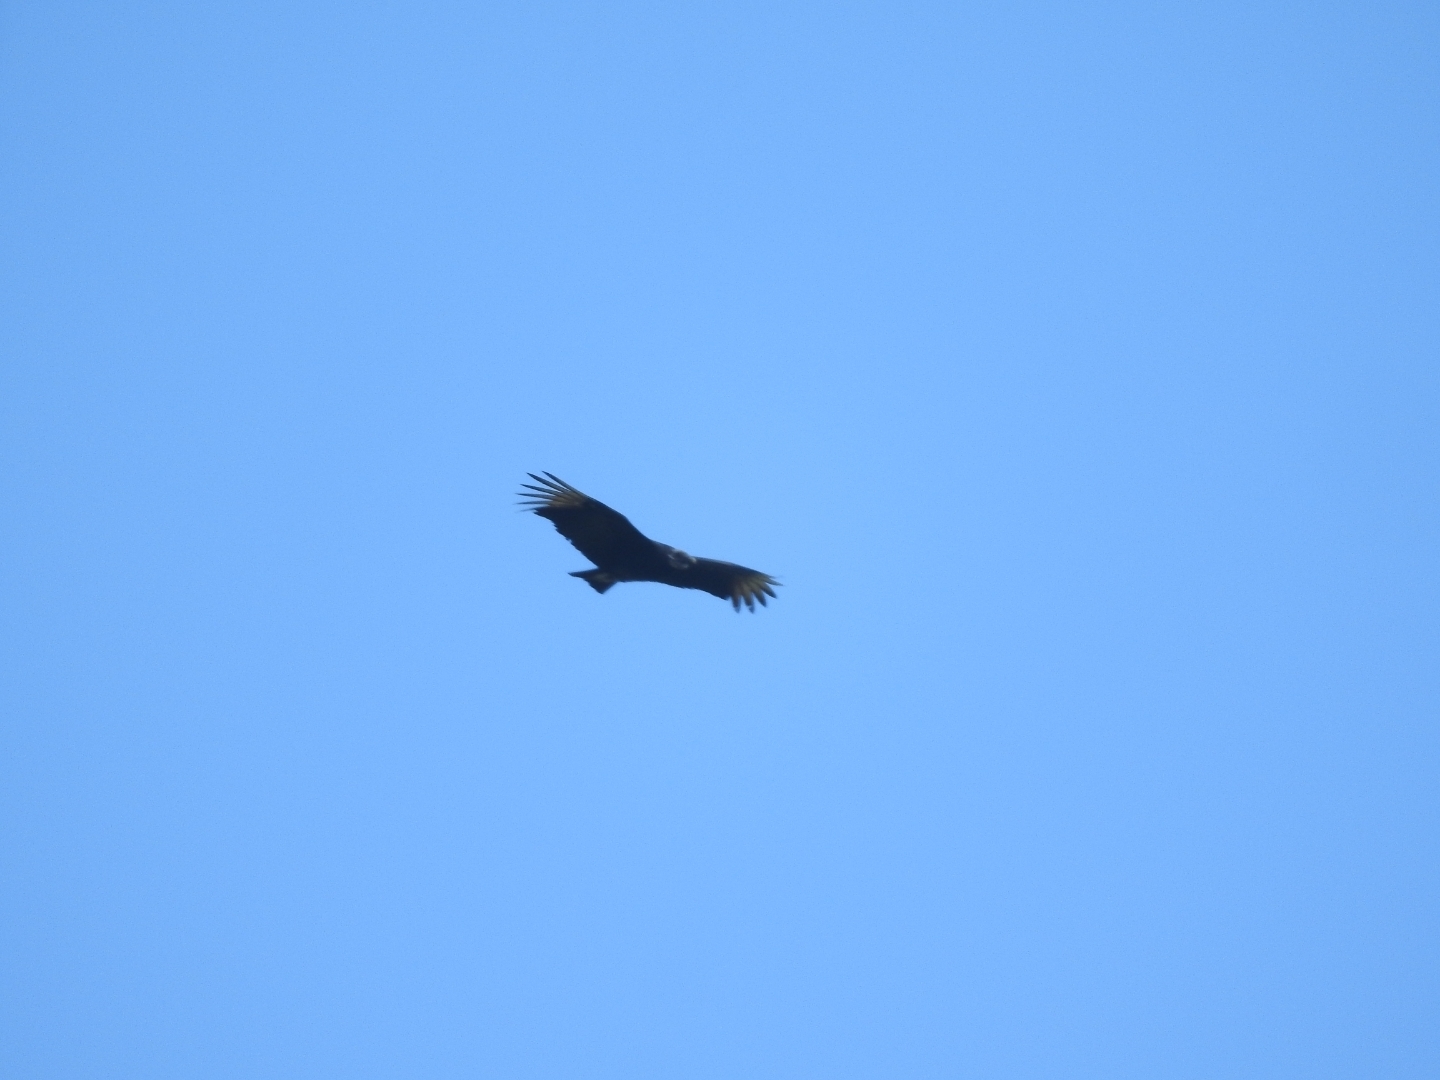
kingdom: Animalia
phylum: Chordata
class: Aves
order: Accipitriformes
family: Cathartidae
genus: Coragyps
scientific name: Coragyps atratus
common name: Black vulture
